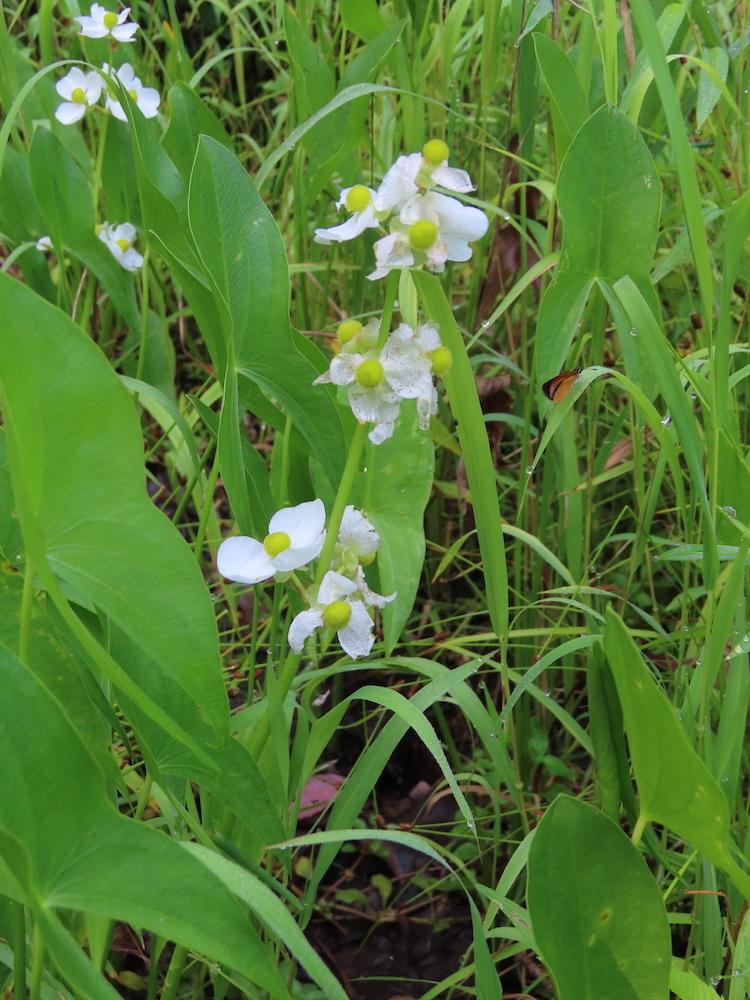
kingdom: Plantae
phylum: Tracheophyta
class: Liliopsida
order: Alismatales
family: Alismataceae
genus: Sagittaria
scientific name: Sagittaria latifolia
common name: Duck-potato
